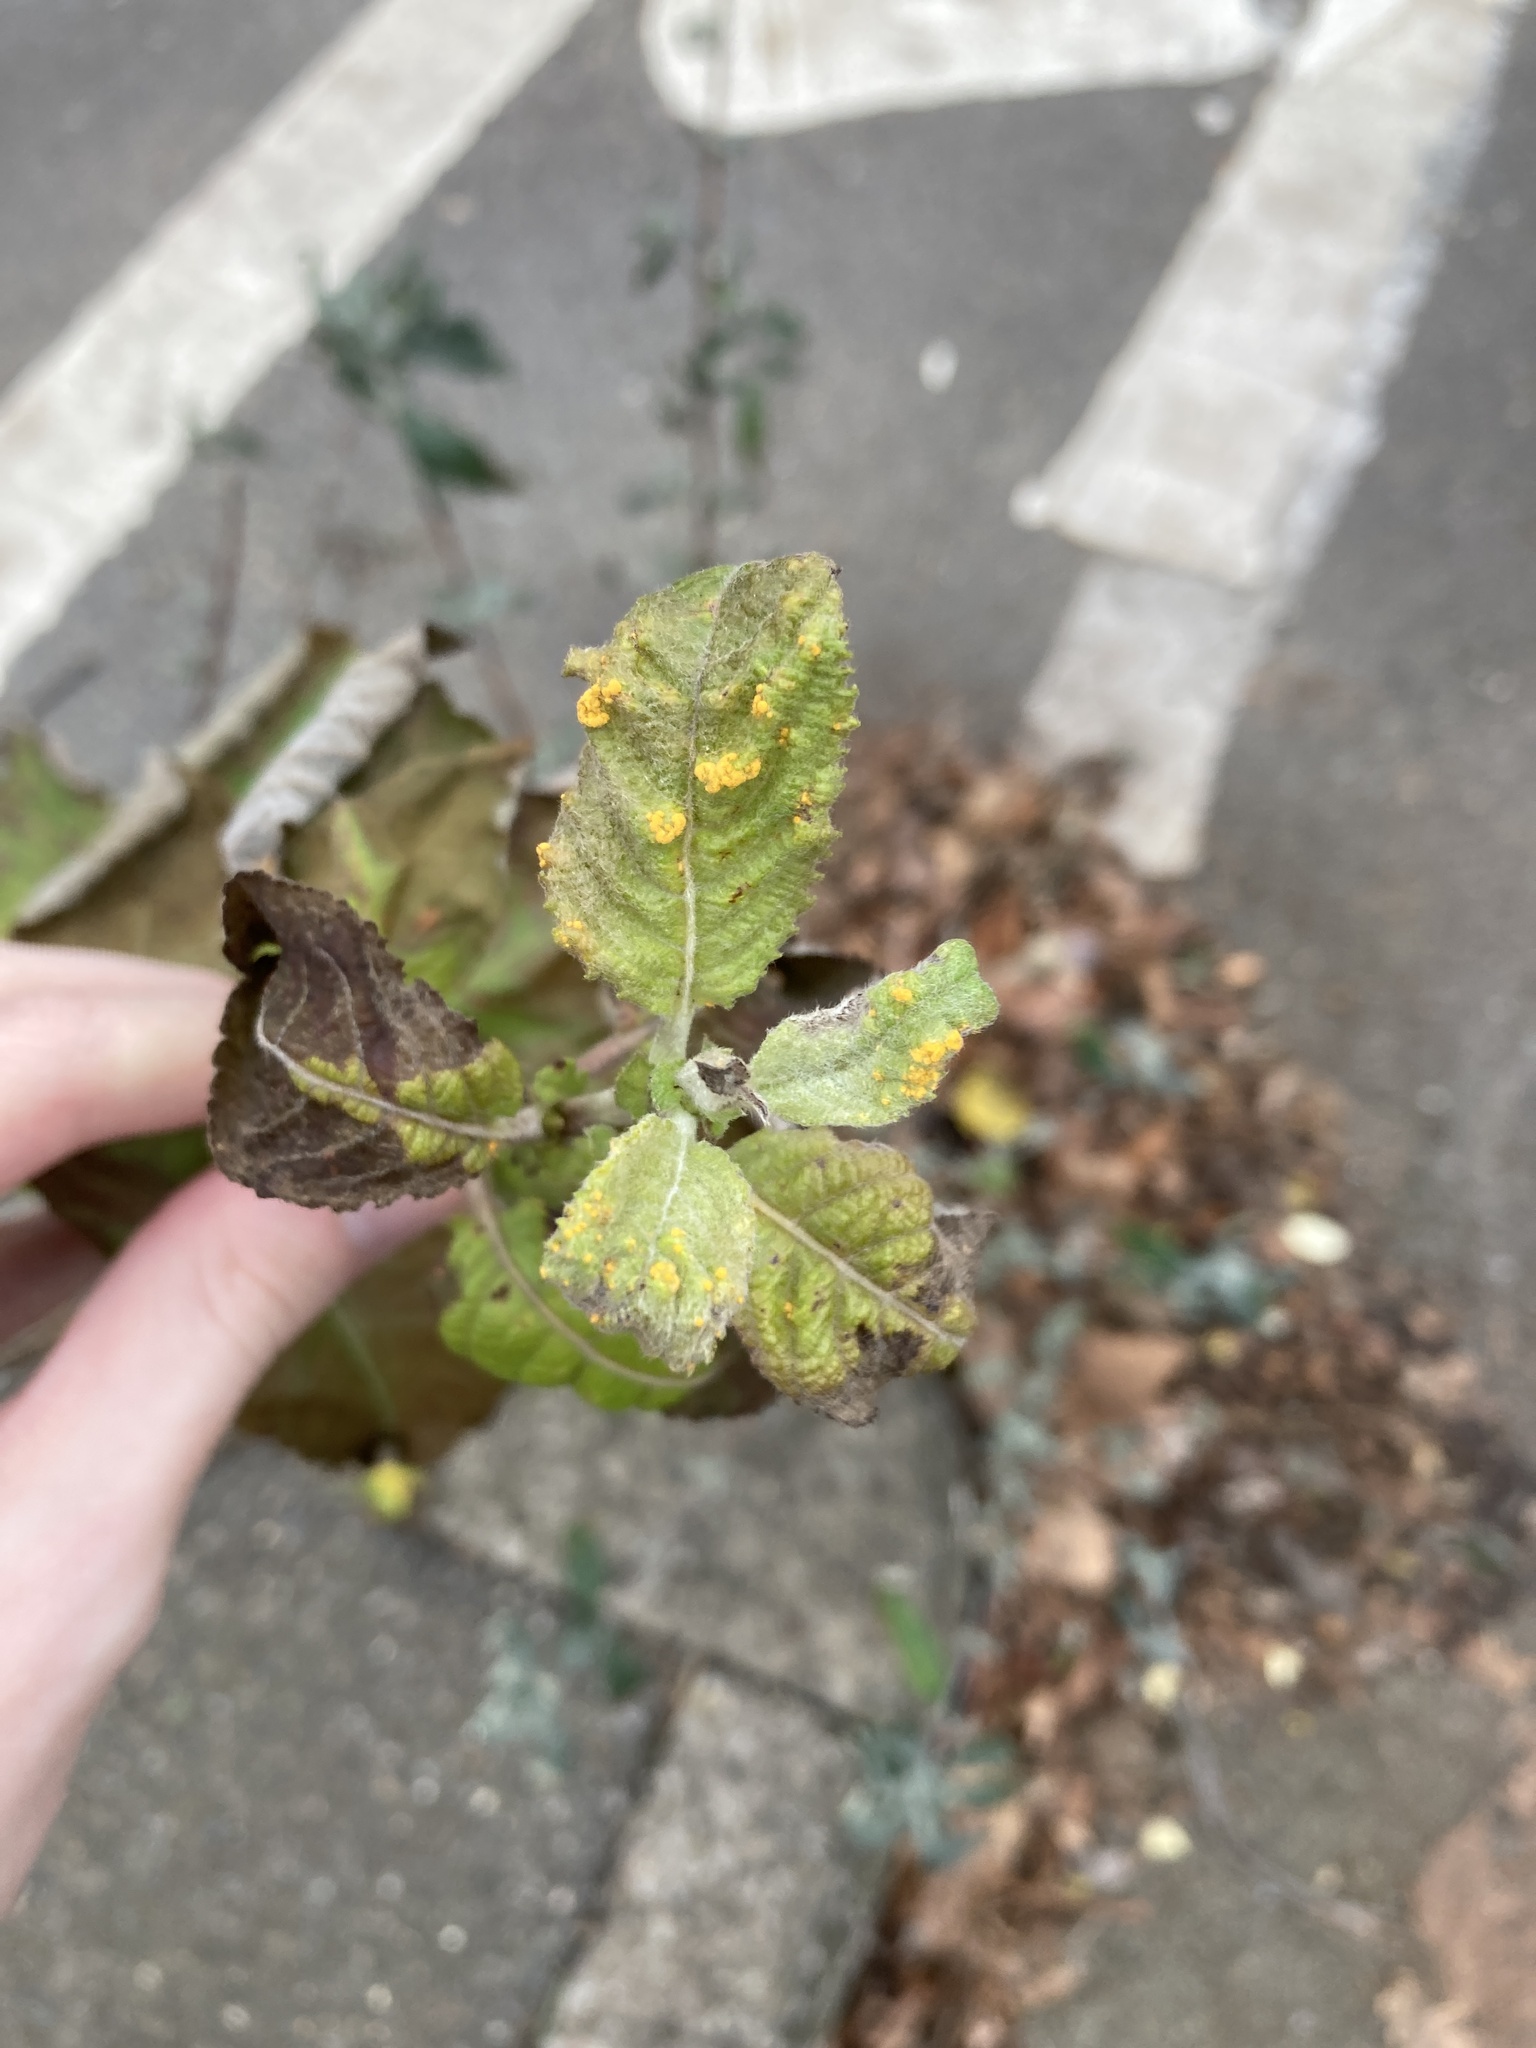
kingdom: Fungi
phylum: Basidiomycota
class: Pucciniomycetes
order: Pucciniales
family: Melampsoraceae
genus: Melampsora
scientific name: Melampsora
